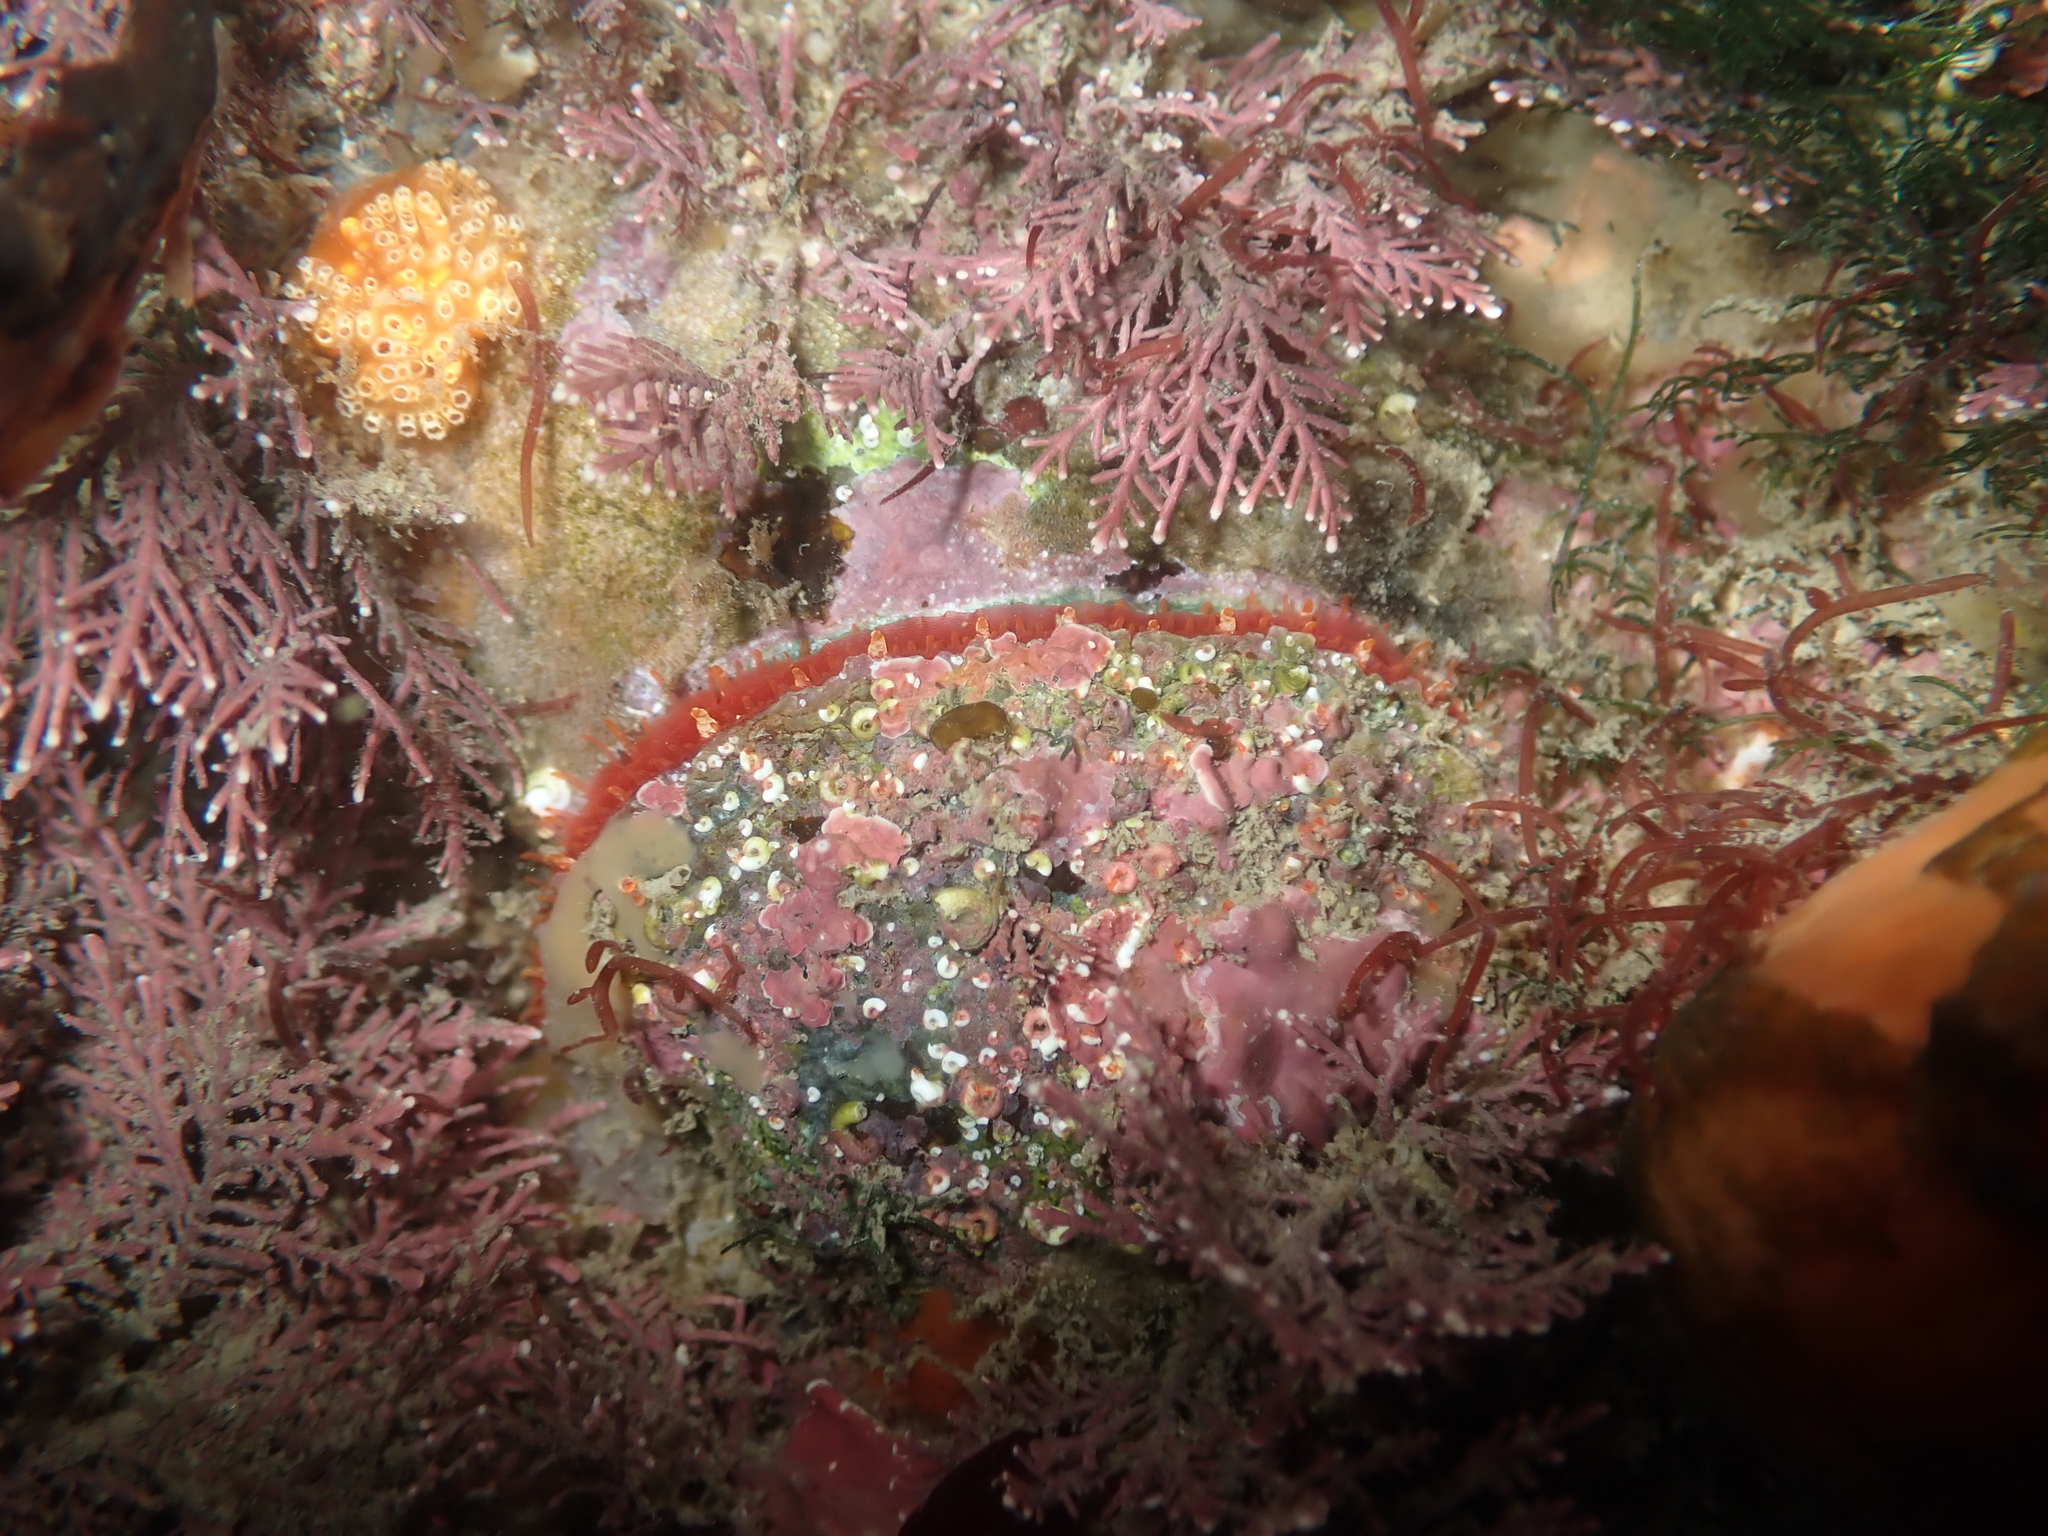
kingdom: Animalia
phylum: Mollusca
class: Bivalvia
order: Pectinida
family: Anomiidae
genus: Monia
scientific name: Monia zelandica
